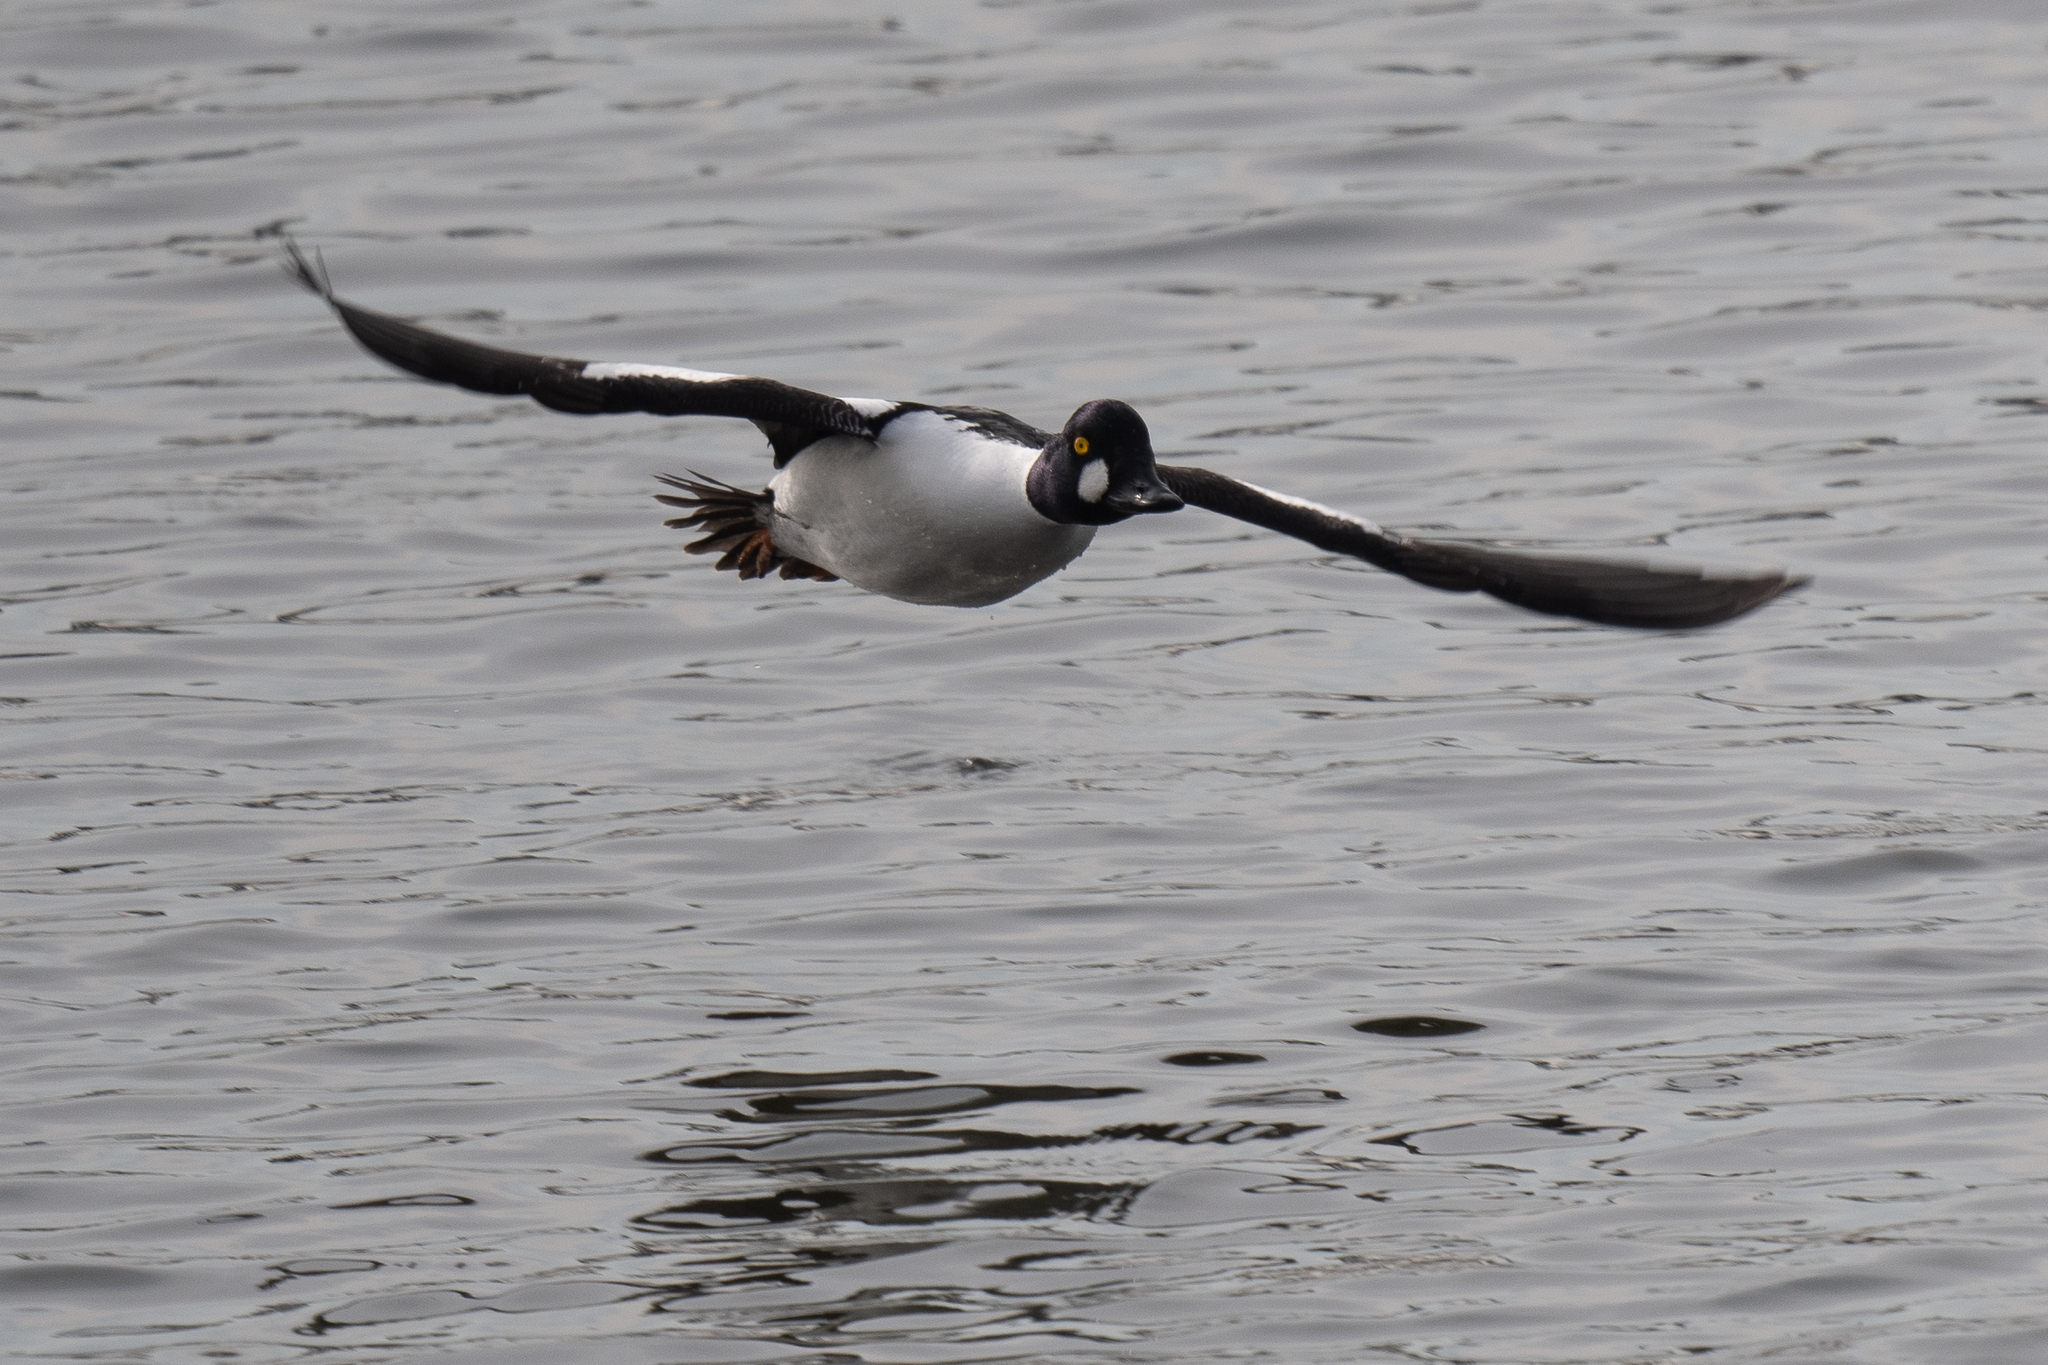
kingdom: Animalia
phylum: Chordata
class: Aves
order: Anseriformes
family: Anatidae
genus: Bucephala
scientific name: Bucephala clangula
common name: Common goldeneye
